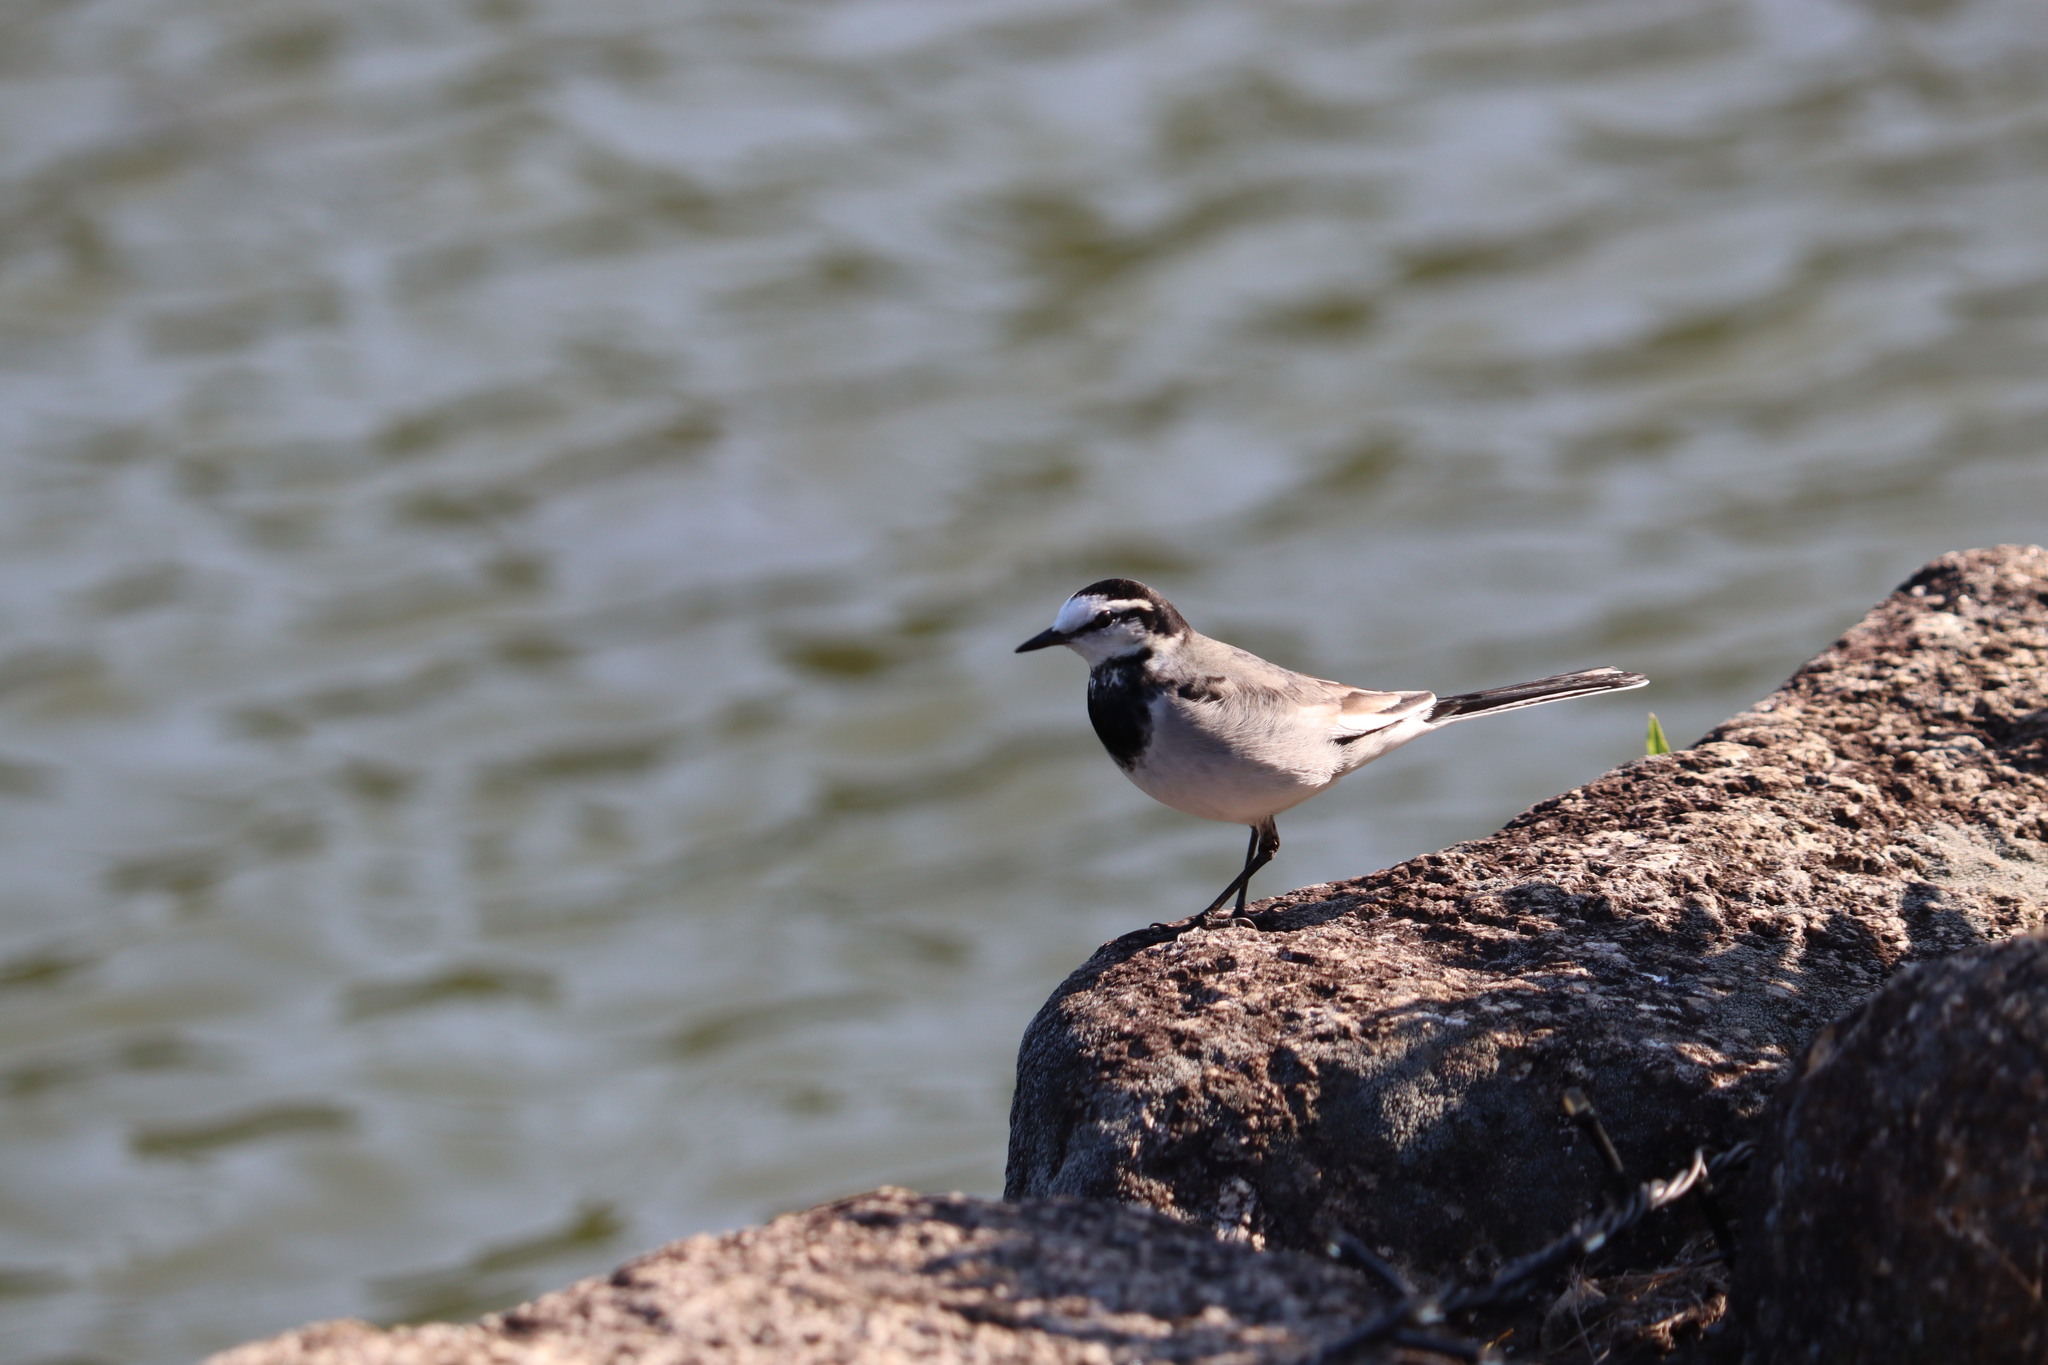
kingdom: Animalia
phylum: Chordata
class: Aves
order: Passeriformes
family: Motacillidae
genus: Motacilla
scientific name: Motacilla alba
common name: White wagtail
